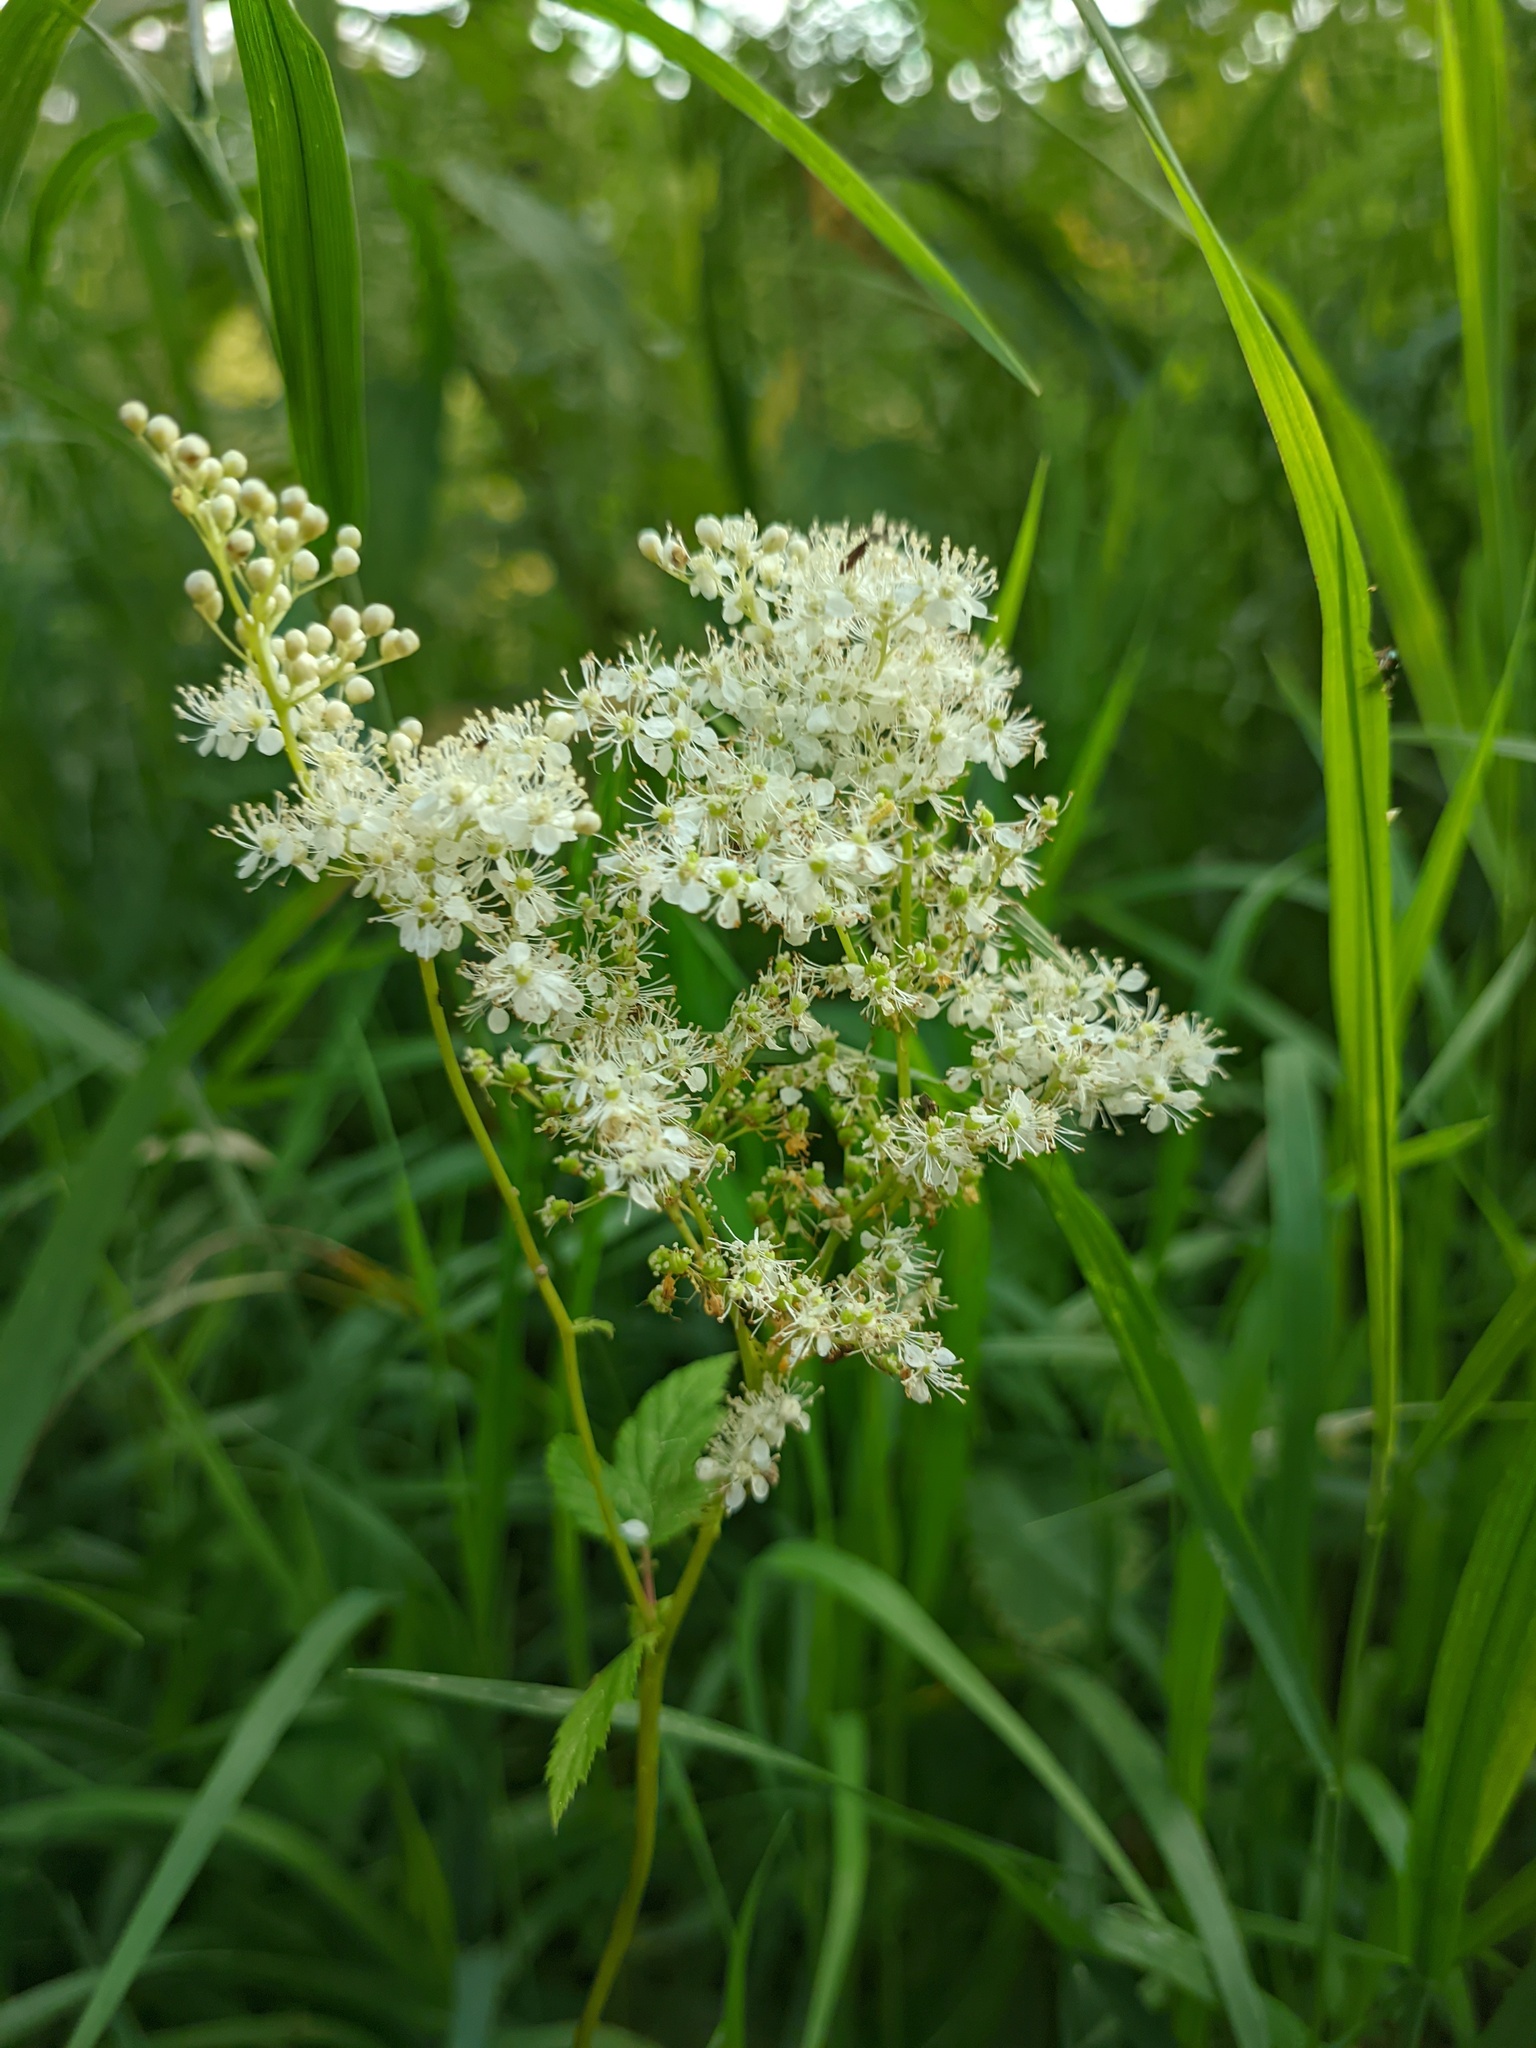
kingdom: Plantae
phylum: Tracheophyta
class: Magnoliopsida
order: Rosales
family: Rosaceae
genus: Filipendula
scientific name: Filipendula ulmaria
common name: Meadowsweet
